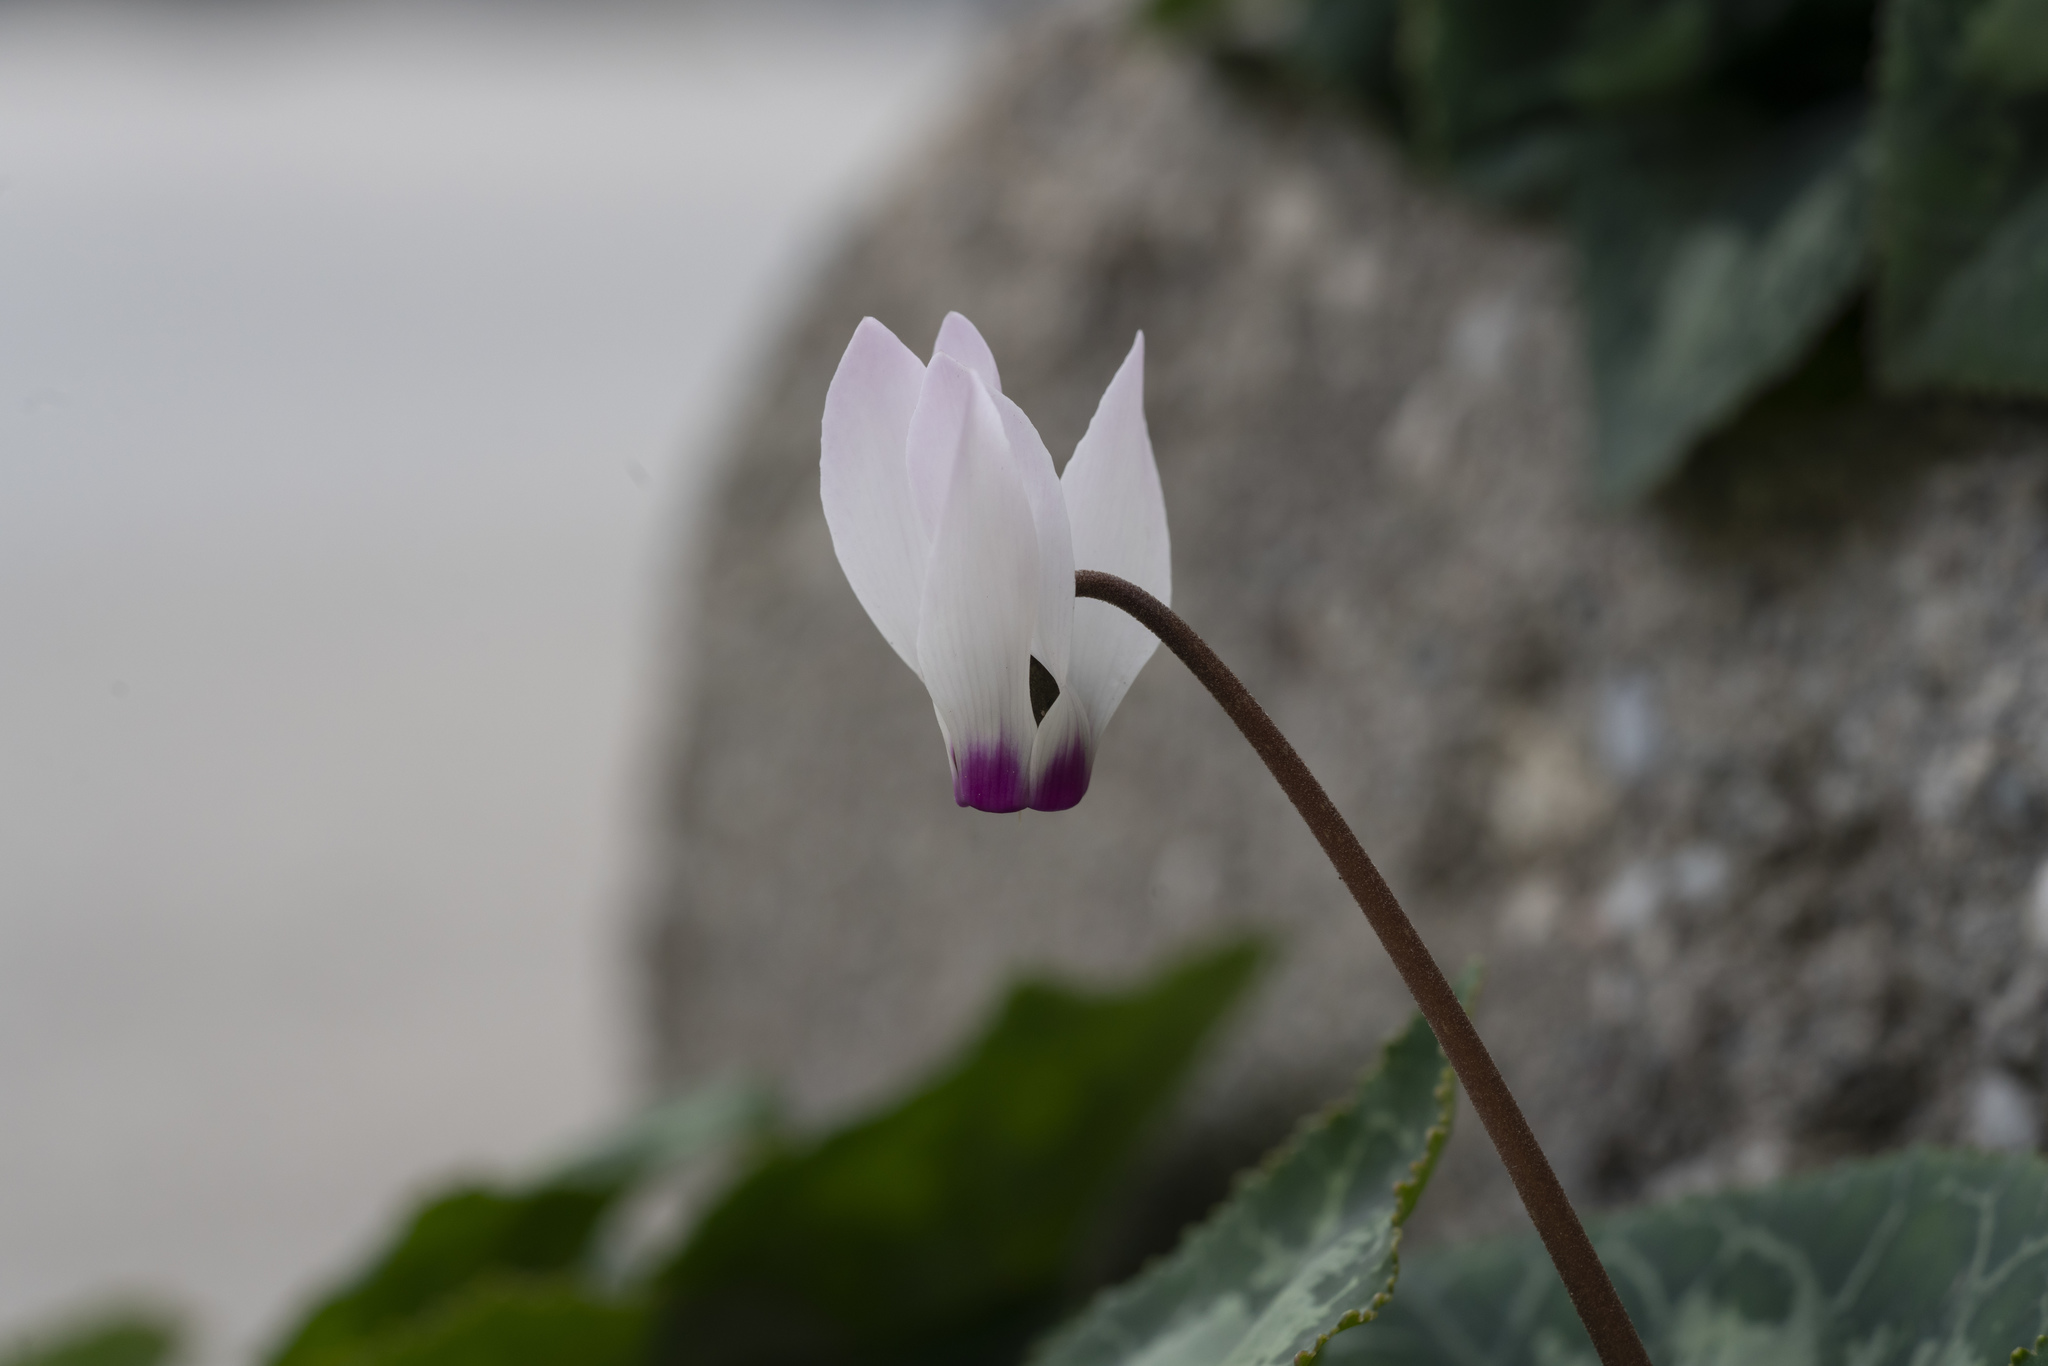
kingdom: Plantae
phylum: Tracheophyta
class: Magnoliopsida
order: Ericales
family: Primulaceae
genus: Cyclamen
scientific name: Cyclamen persicum
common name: Florist's cyclamen
